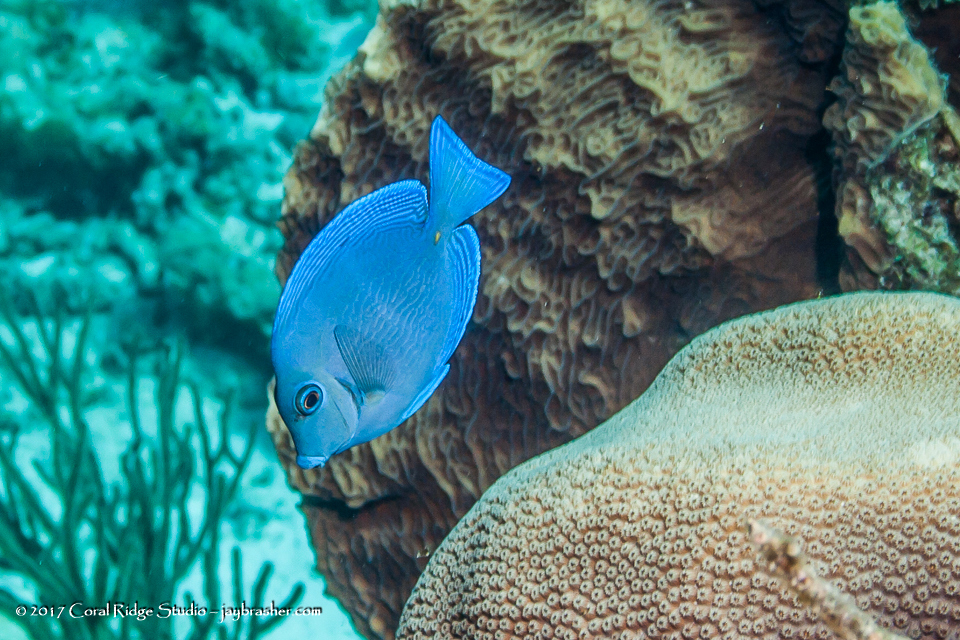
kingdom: Animalia
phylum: Chordata
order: Perciformes
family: Acanthuridae
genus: Acanthurus
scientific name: Acanthurus coeruleus
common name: Blue tang
